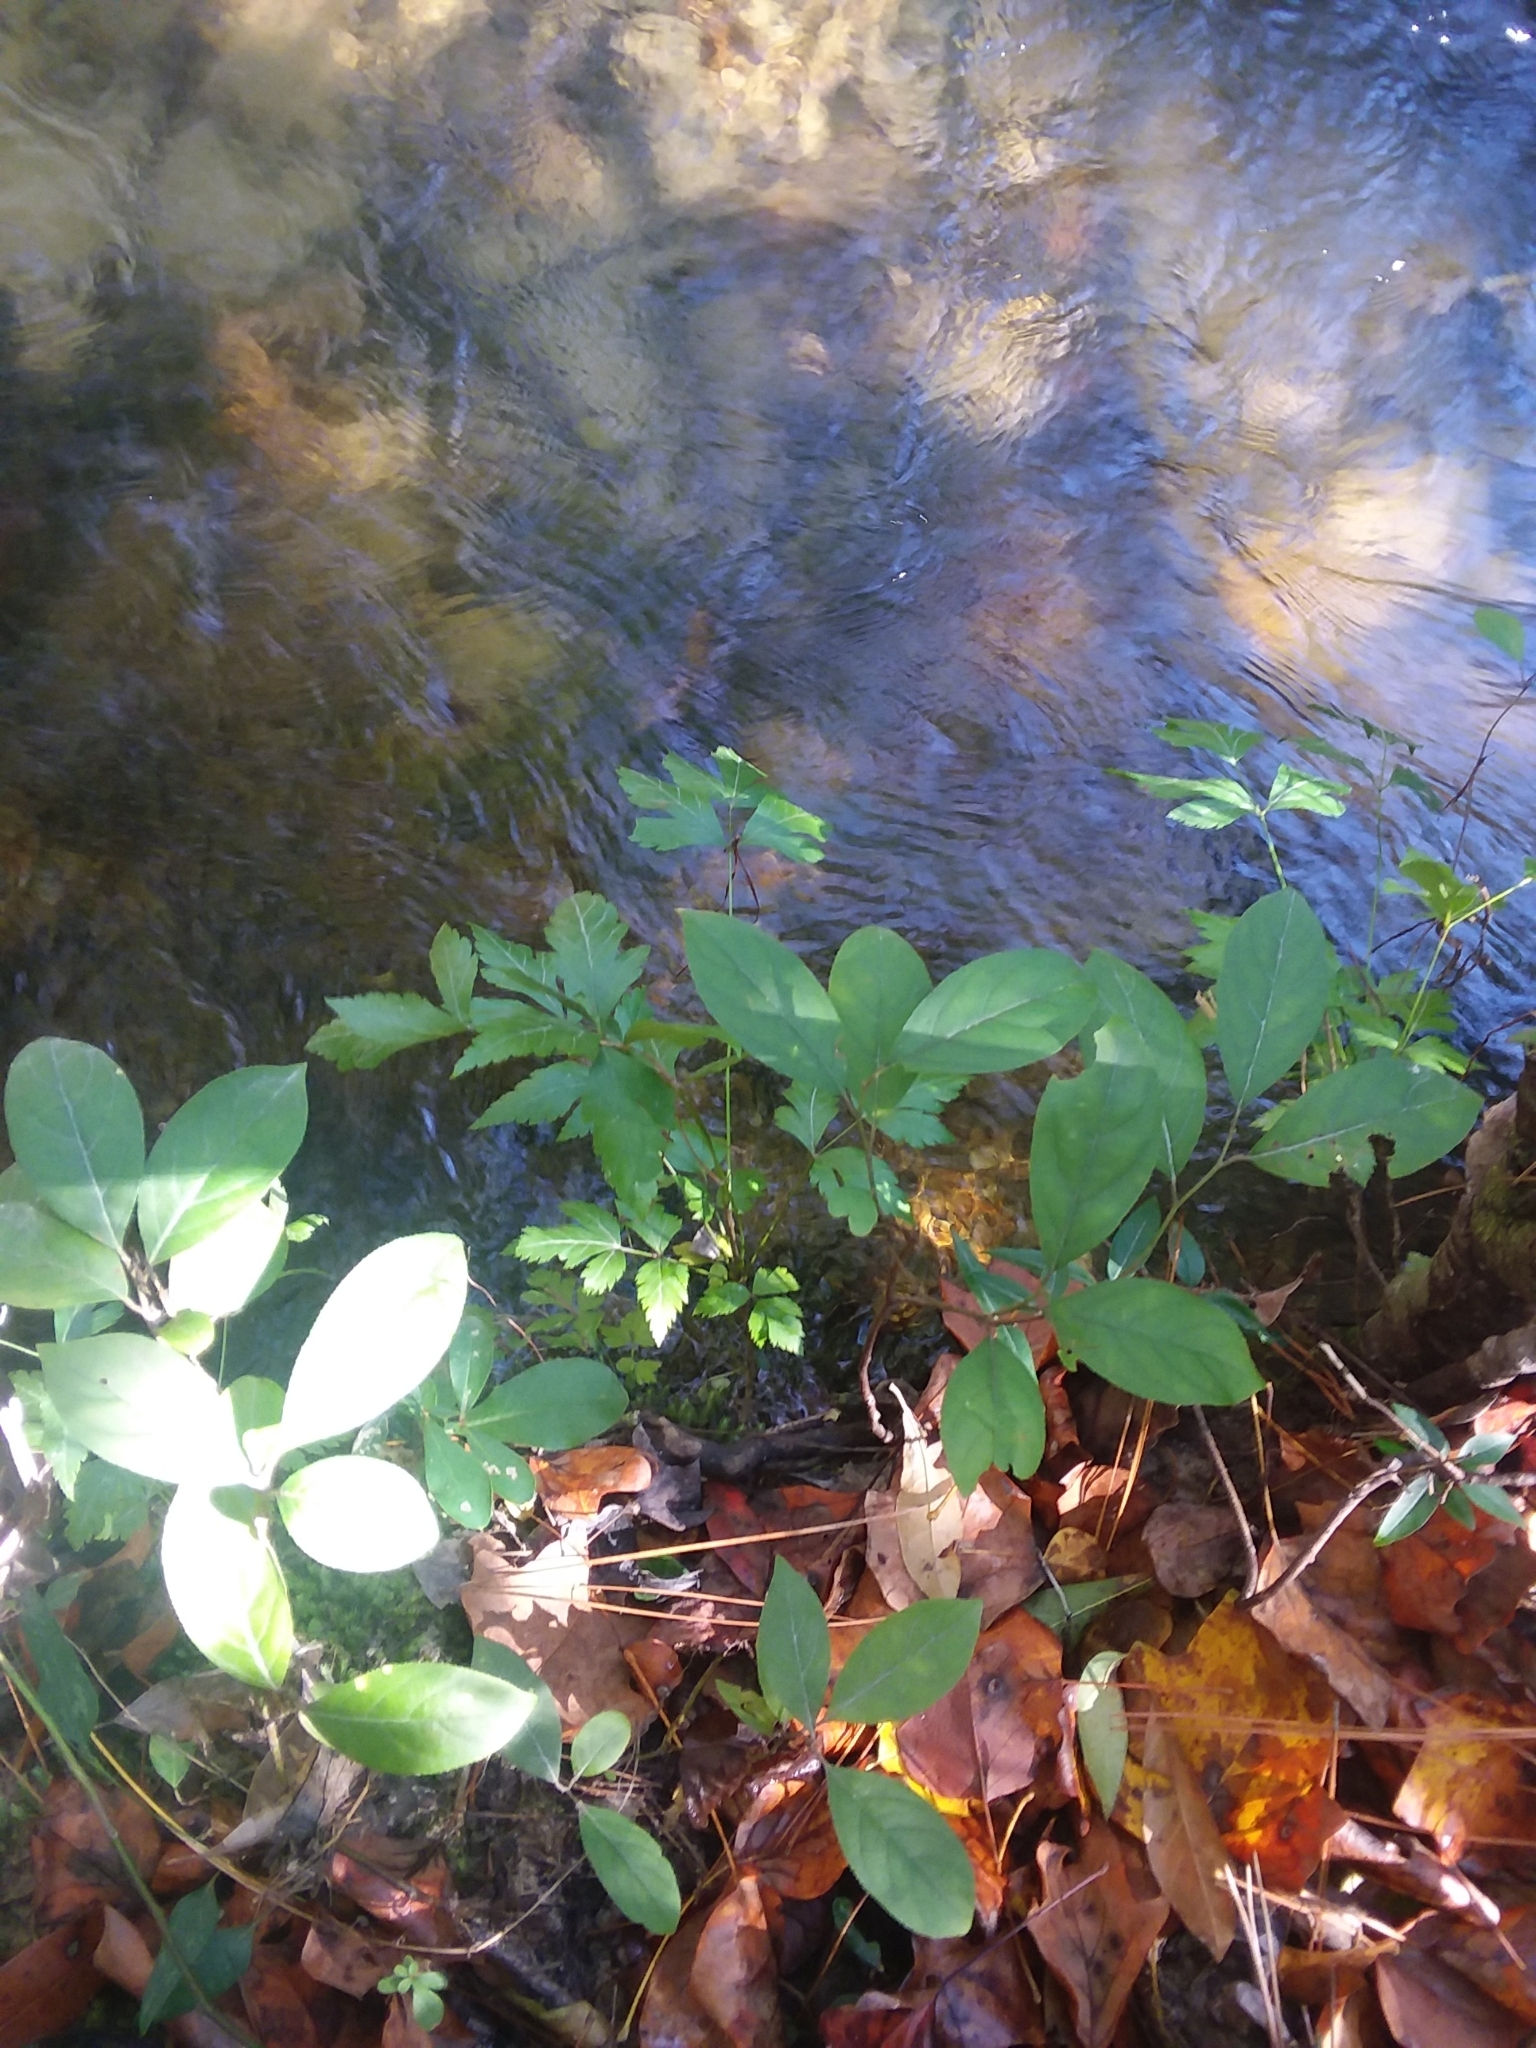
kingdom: Plantae
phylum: Tracheophyta
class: Magnoliopsida
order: Ranunculales
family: Ranunculaceae
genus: Xanthorhiza
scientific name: Xanthorhiza simplicissima
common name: Yellowroot
